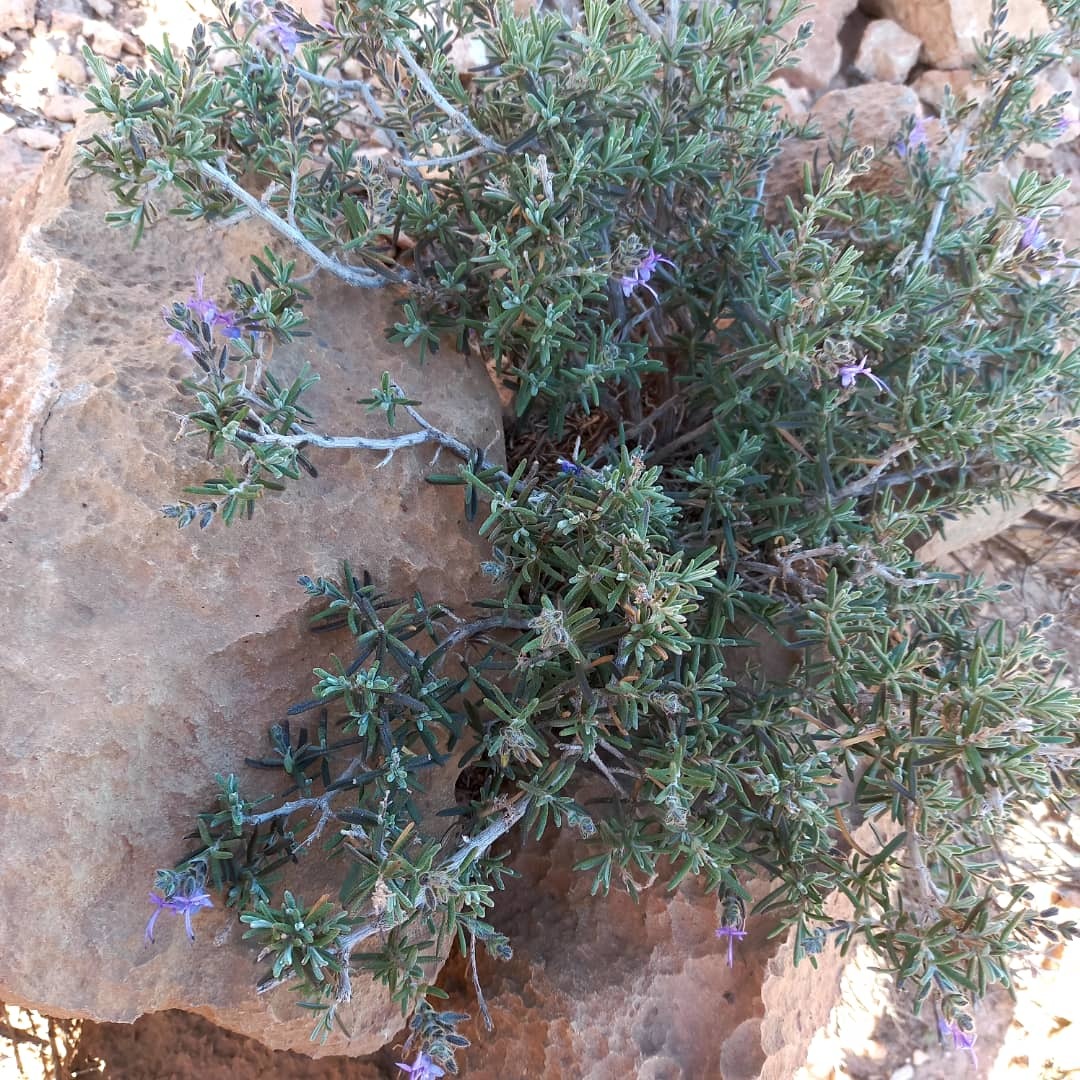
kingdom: Plantae
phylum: Tracheophyta
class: Magnoliopsida
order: Lamiales
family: Lamiaceae
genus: Salvia
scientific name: Salvia jordanii
